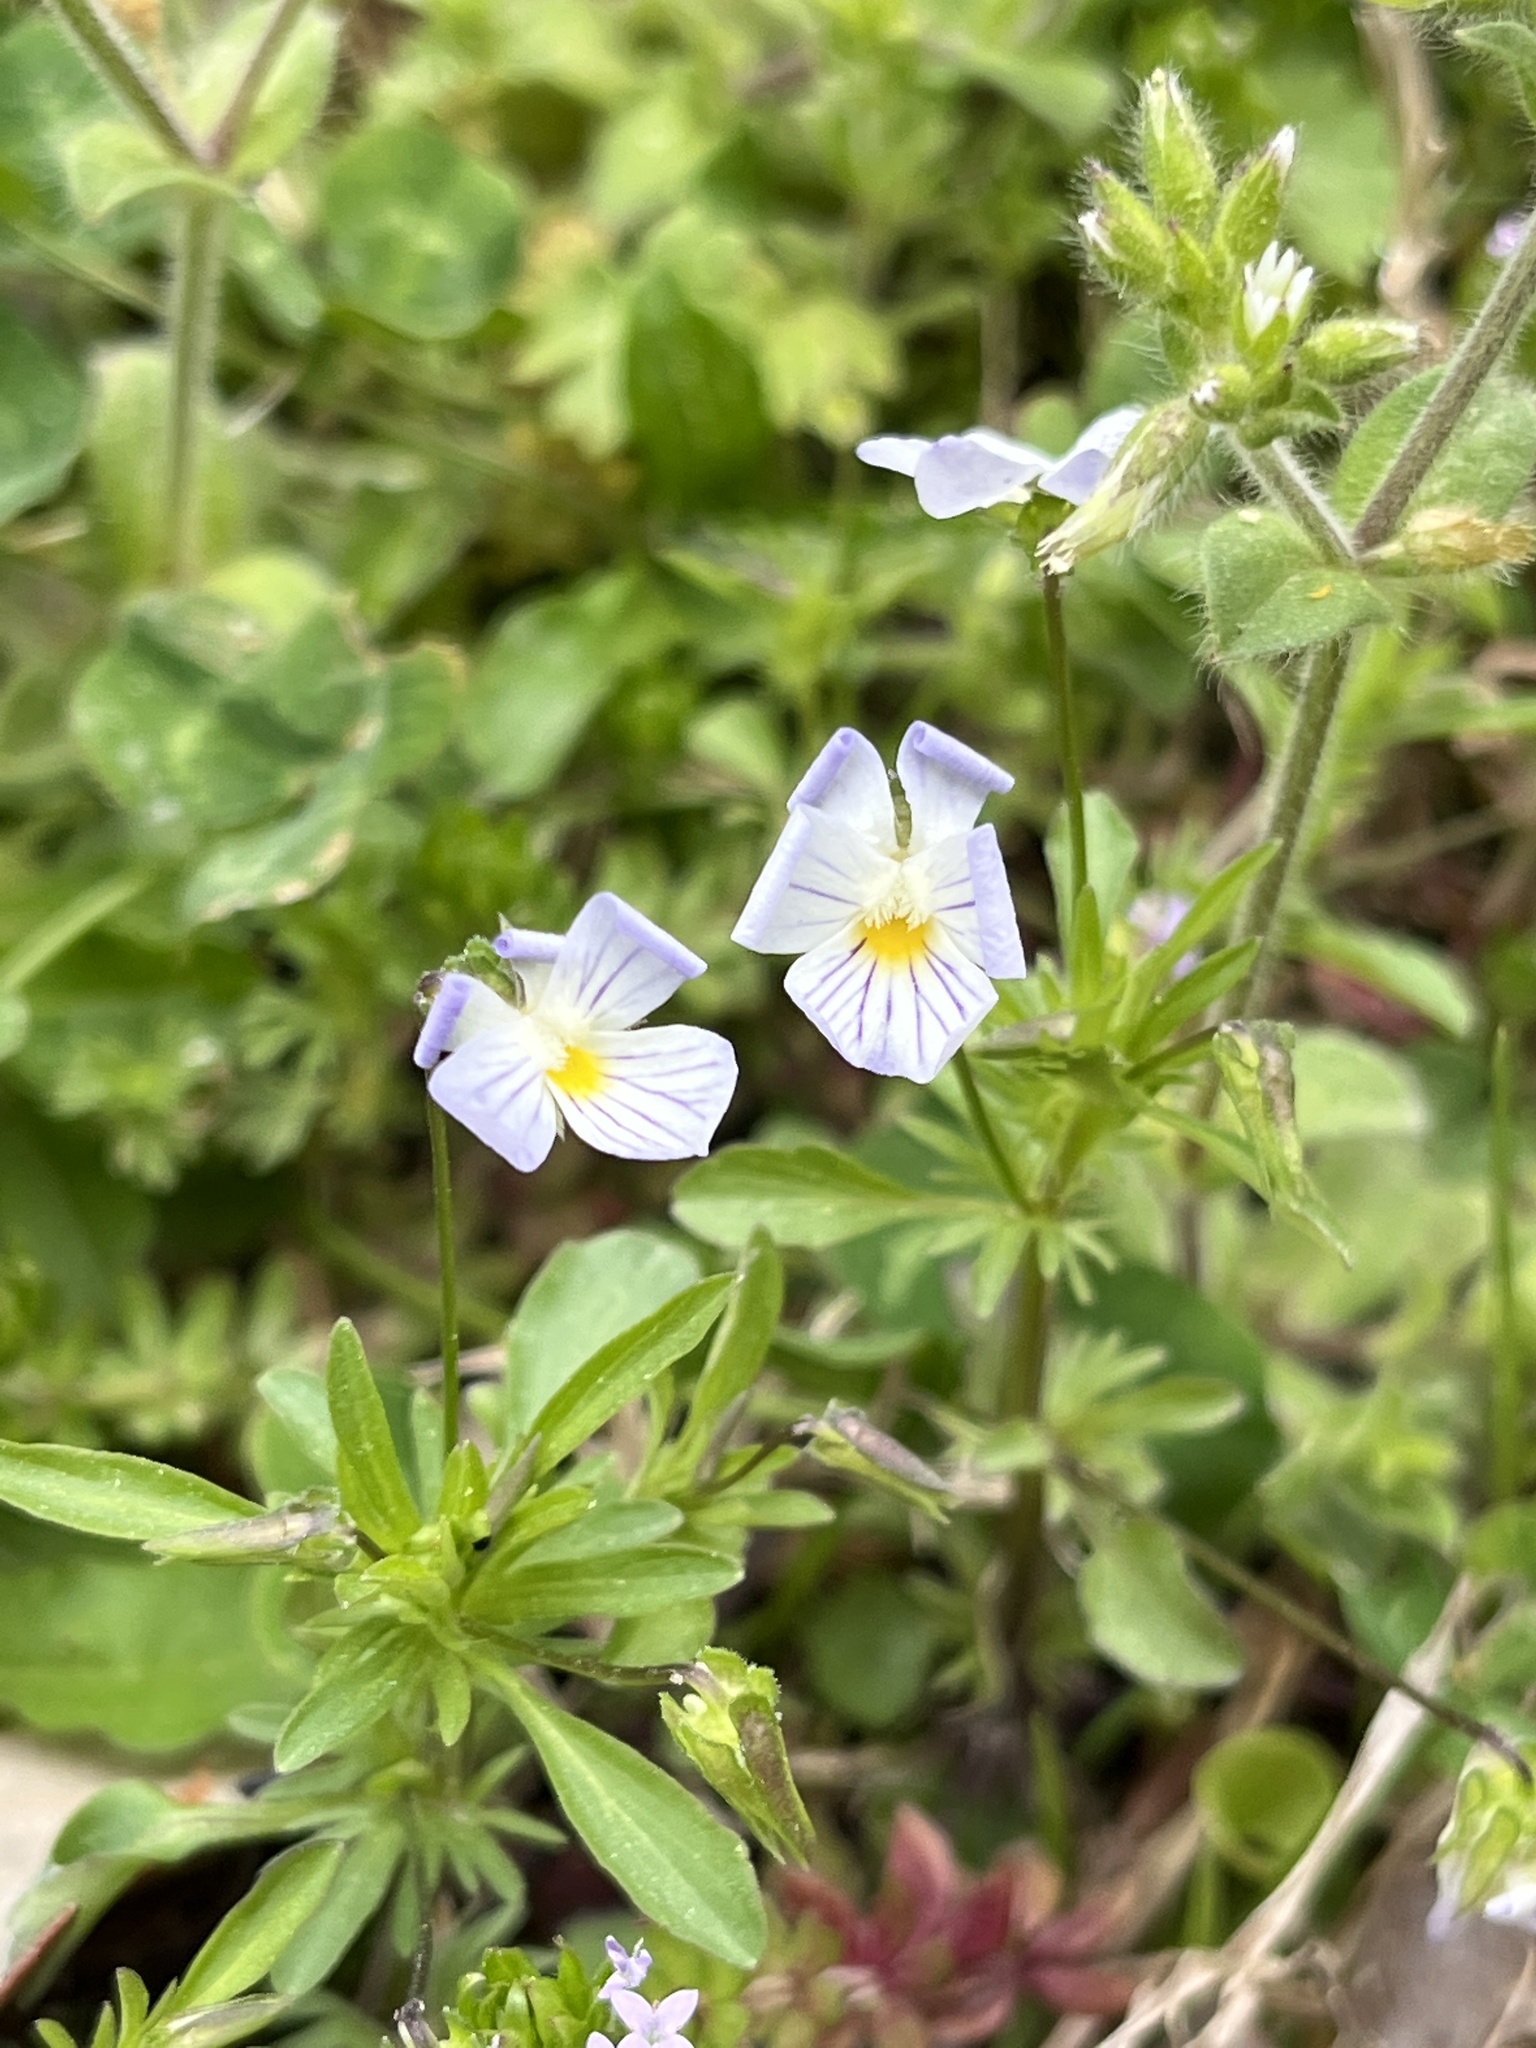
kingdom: Plantae
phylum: Tracheophyta
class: Magnoliopsida
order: Malpighiales
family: Violaceae
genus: Viola
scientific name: Viola rafinesquei
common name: American field pansy
